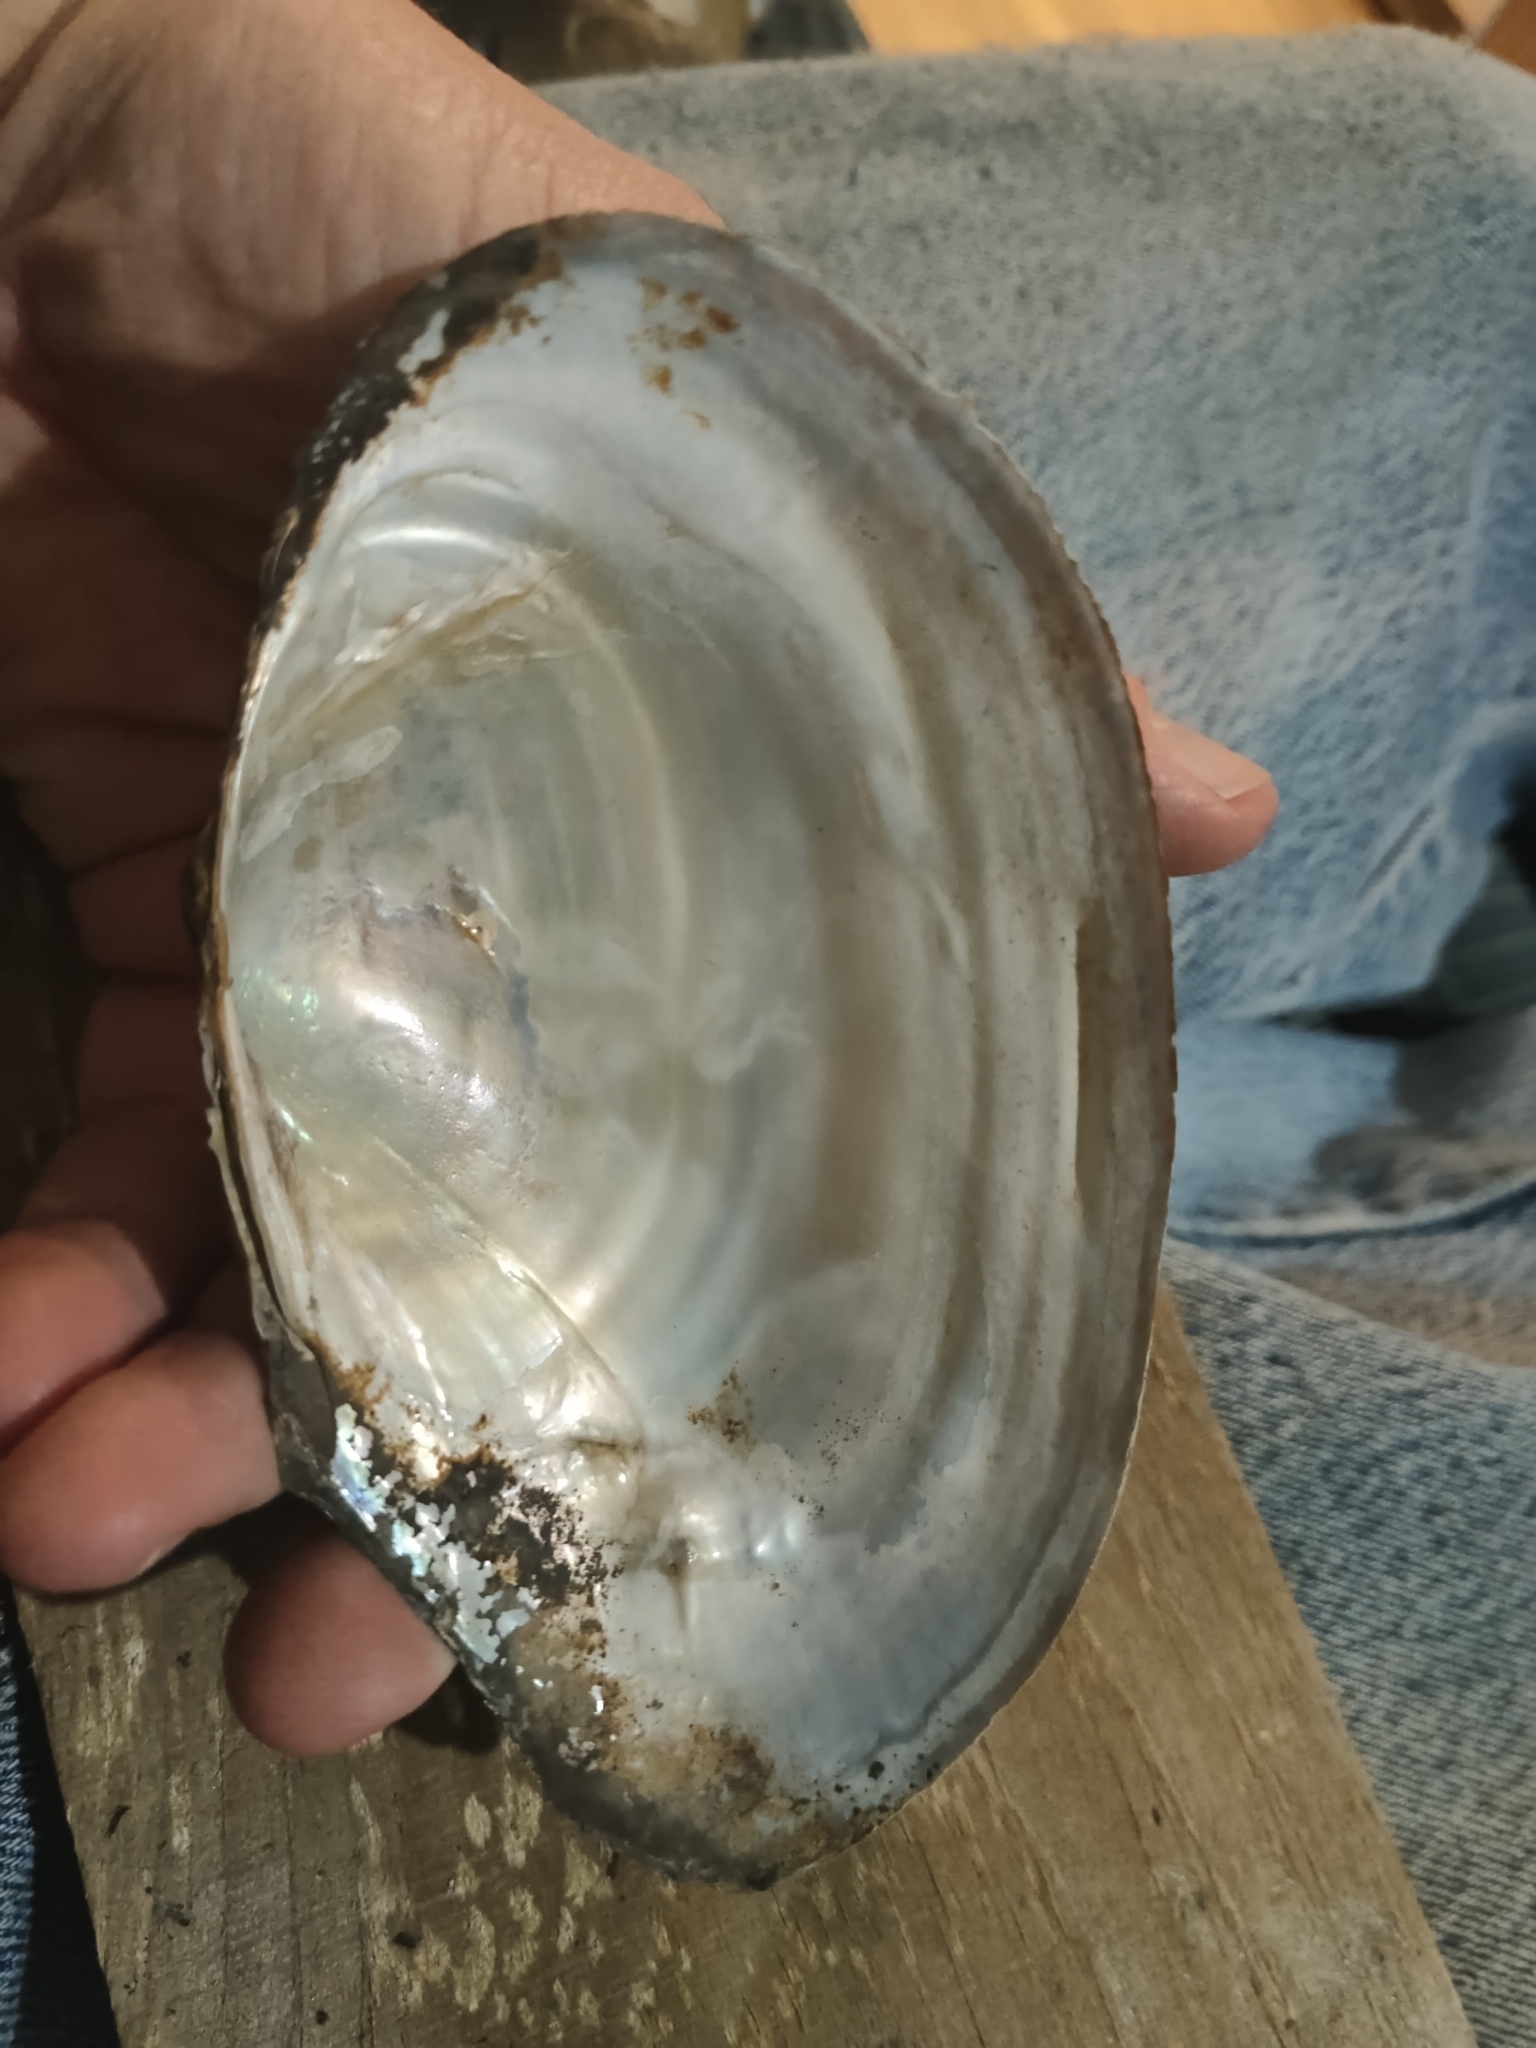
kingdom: Animalia
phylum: Mollusca
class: Bivalvia
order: Unionida
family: Unionidae
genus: Pyganodon
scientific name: Pyganodon grandis
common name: Giant floater
